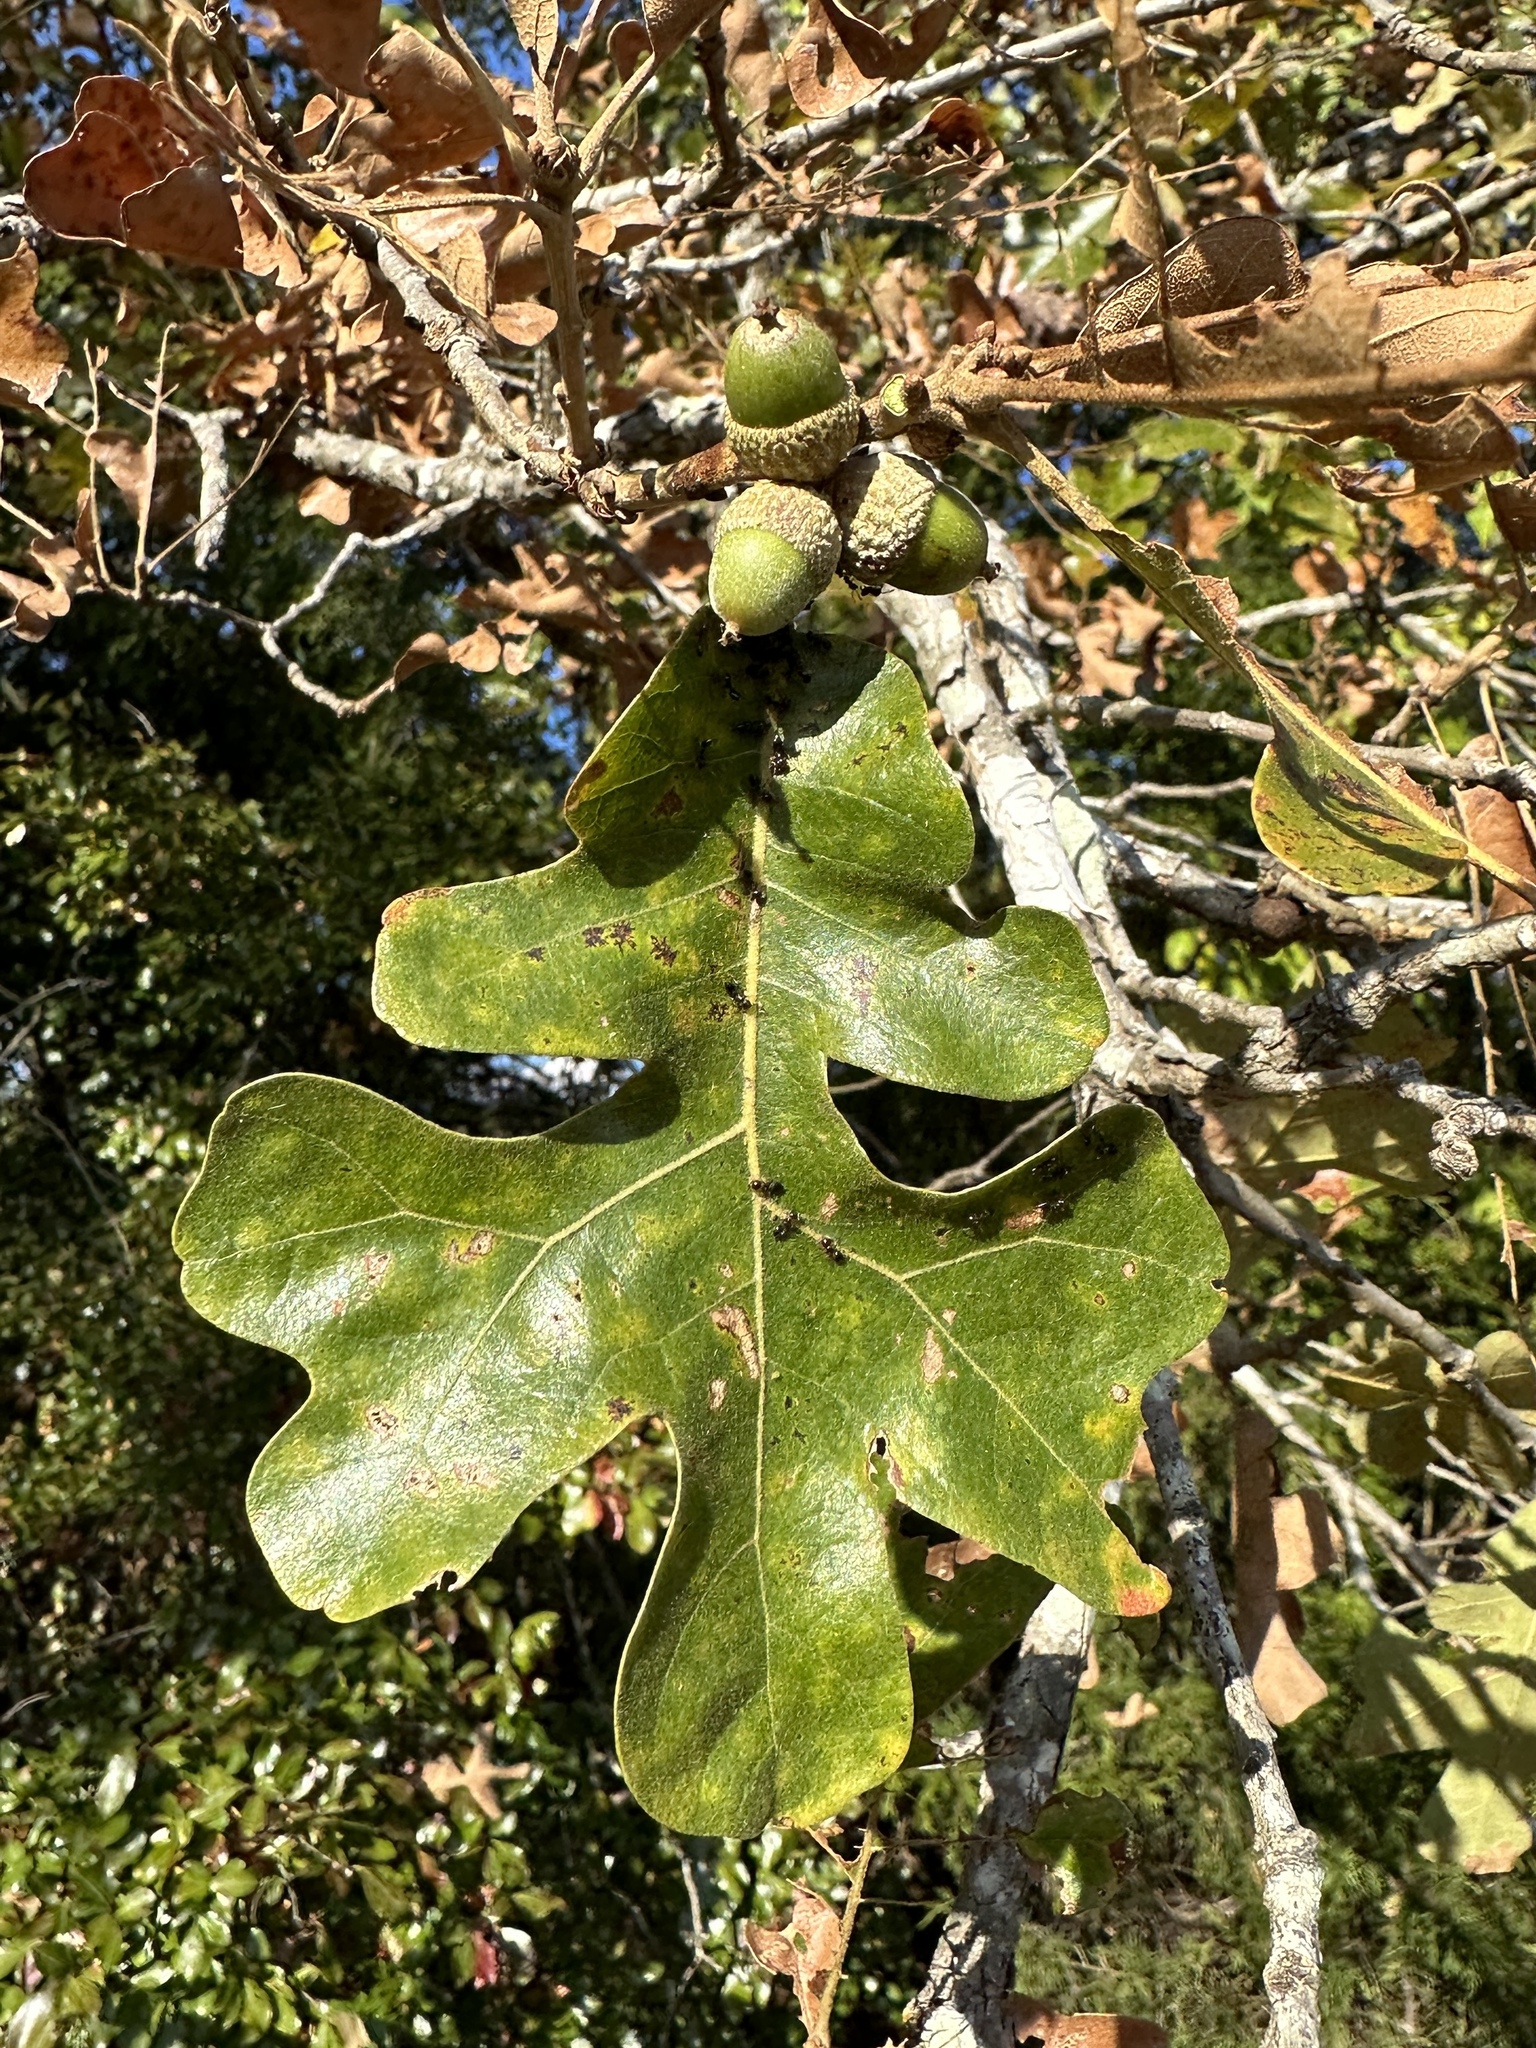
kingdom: Plantae
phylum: Tracheophyta
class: Magnoliopsida
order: Fagales
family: Fagaceae
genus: Quercus
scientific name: Quercus stellata
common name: Post oak
